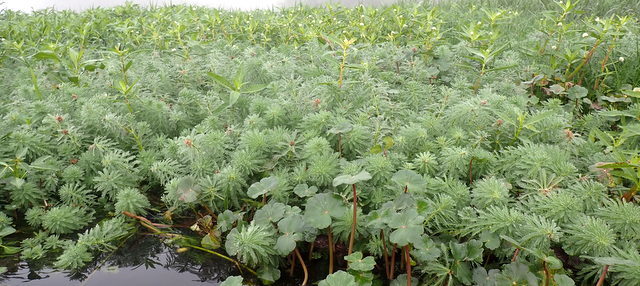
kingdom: Plantae
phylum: Tracheophyta
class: Magnoliopsida
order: Saxifragales
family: Haloragaceae
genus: Myriophyllum
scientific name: Myriophyllum aquaticum
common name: Parrot's feather
